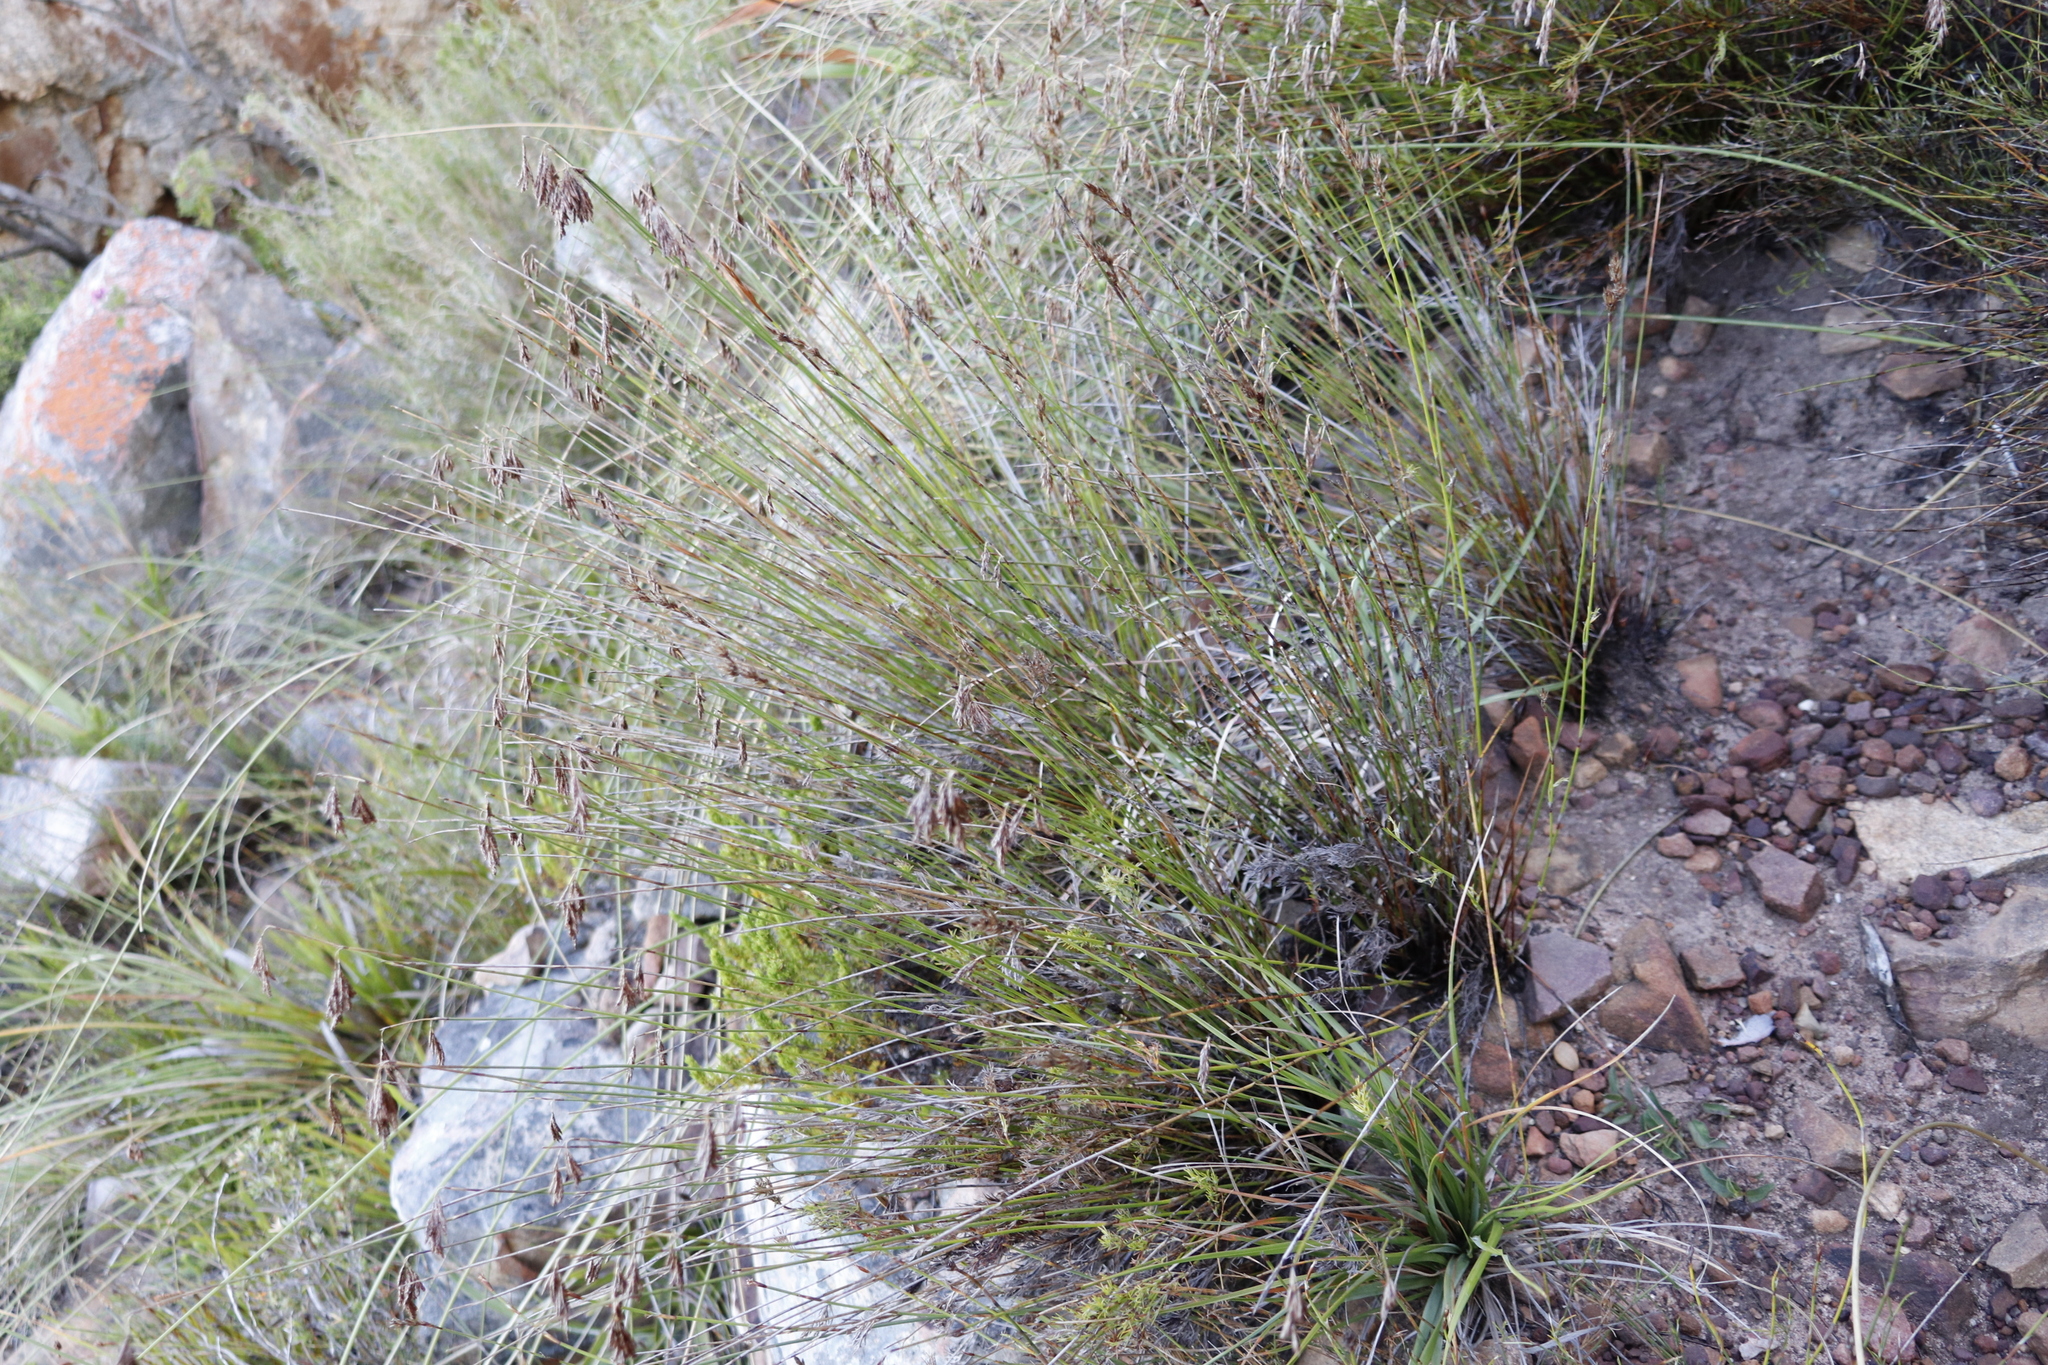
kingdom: Plantae
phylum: Tracheophyta
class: Liliopsida
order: Poales
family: Restionaceae
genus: Thamnochortus
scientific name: Thamnochortus lucens
